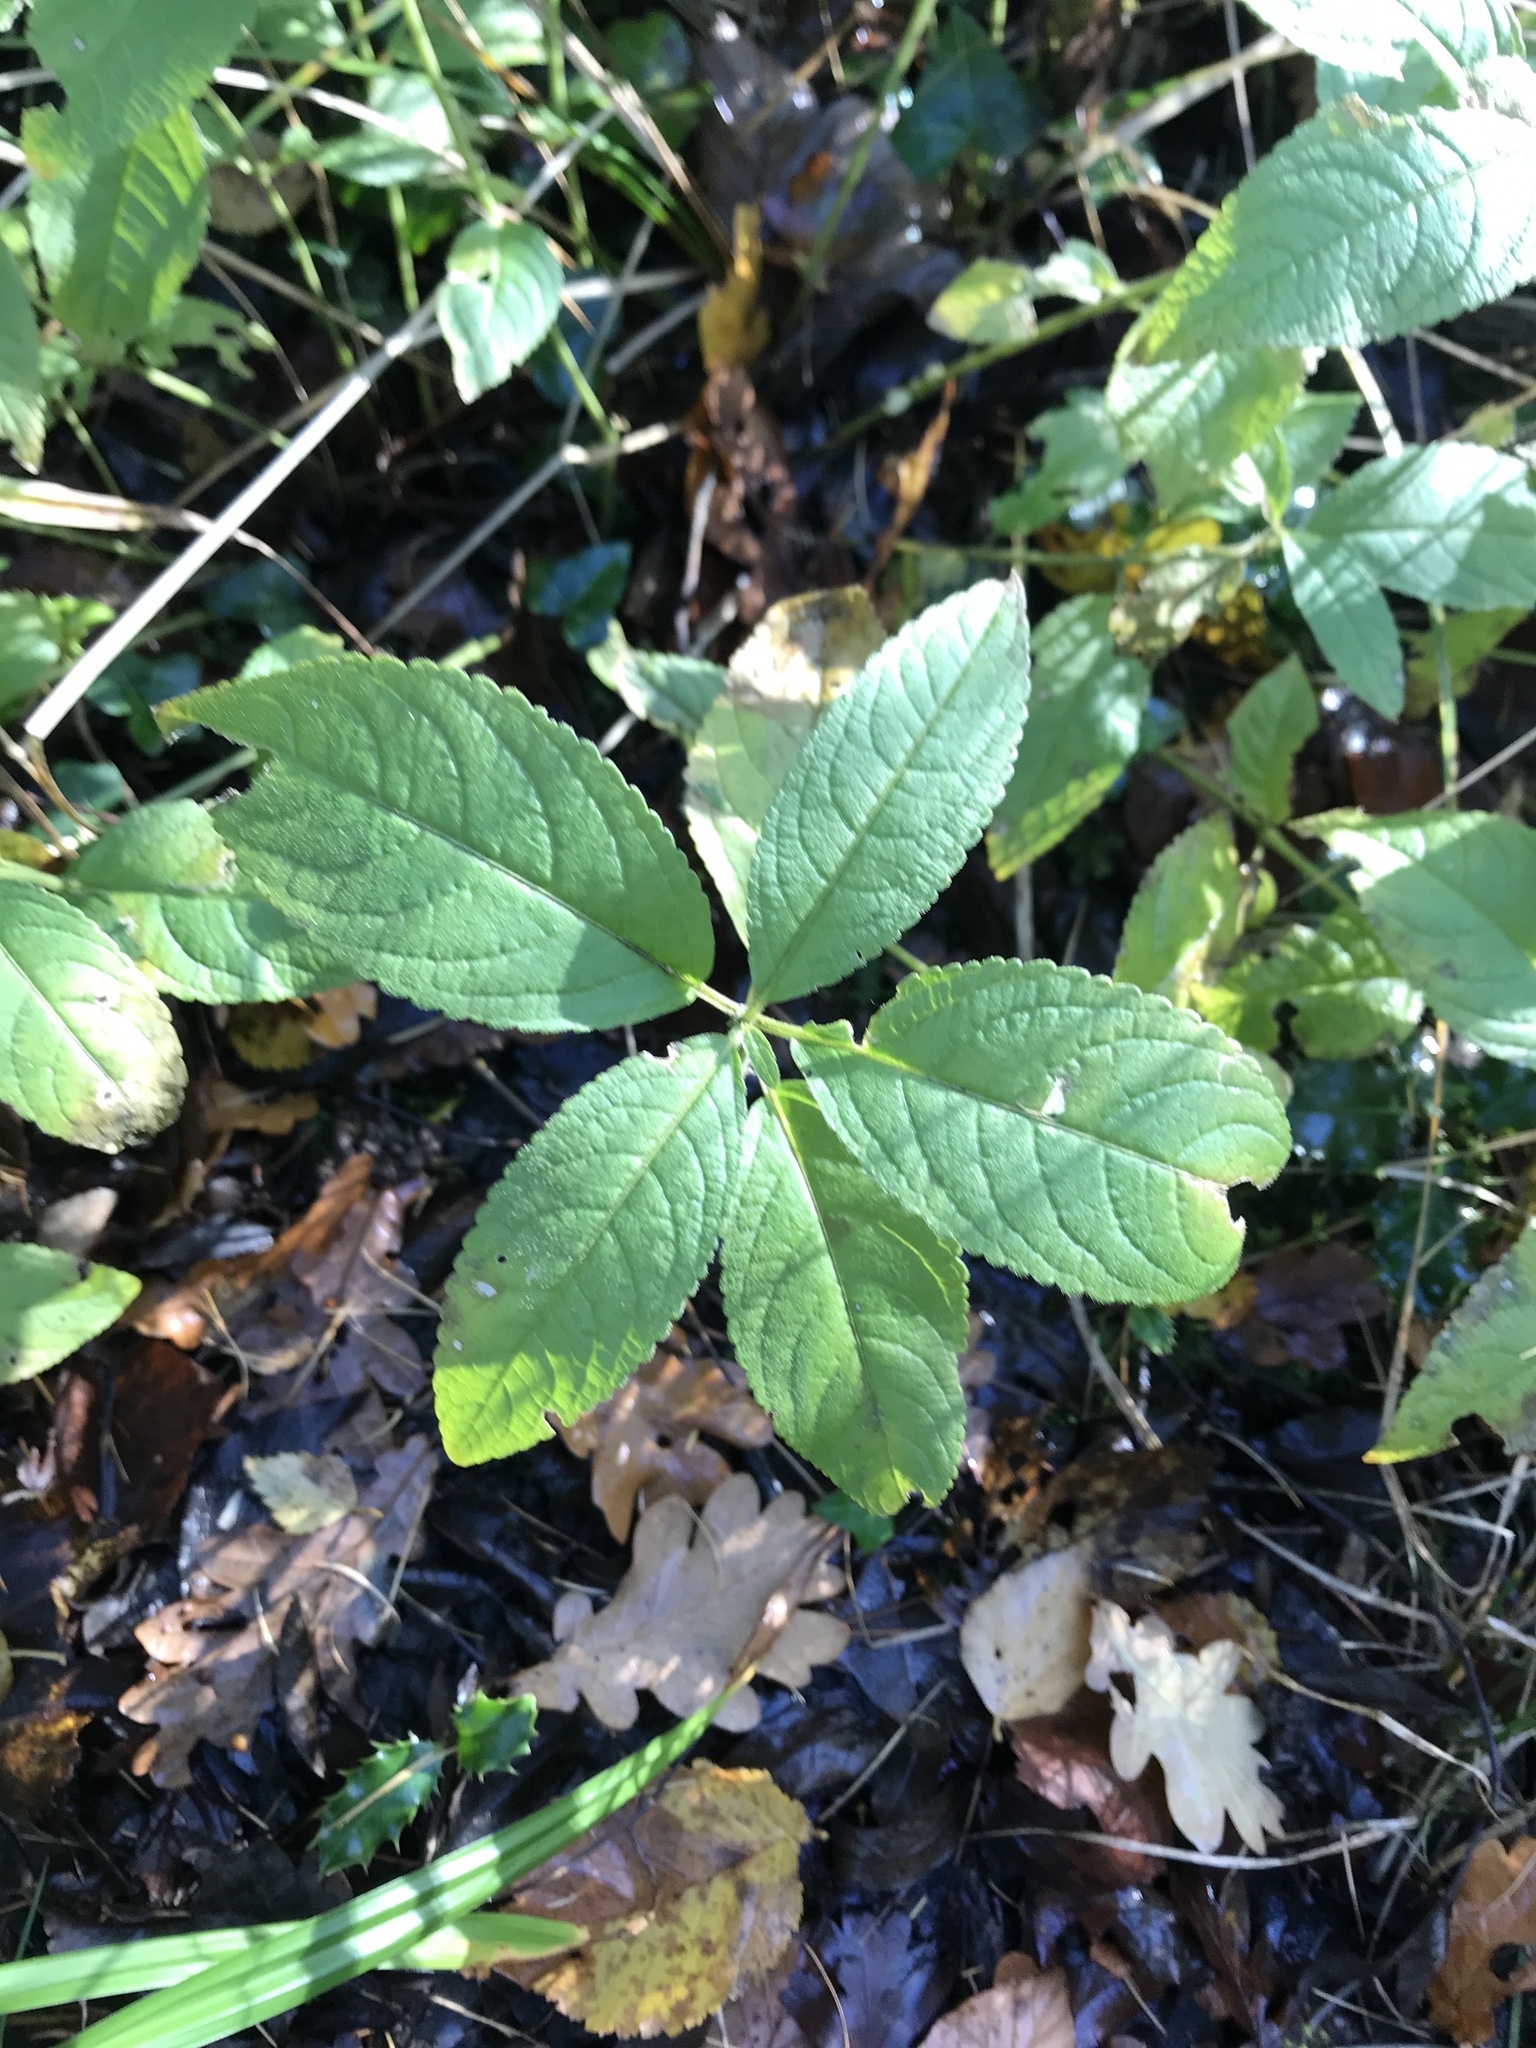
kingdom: Plantae
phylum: Tracheophyta
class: Magnoliopsida
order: Malpighiales
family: Euphorbiaceae
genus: Mercurialis
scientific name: Mercurialis perennis
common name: Dog mercury
